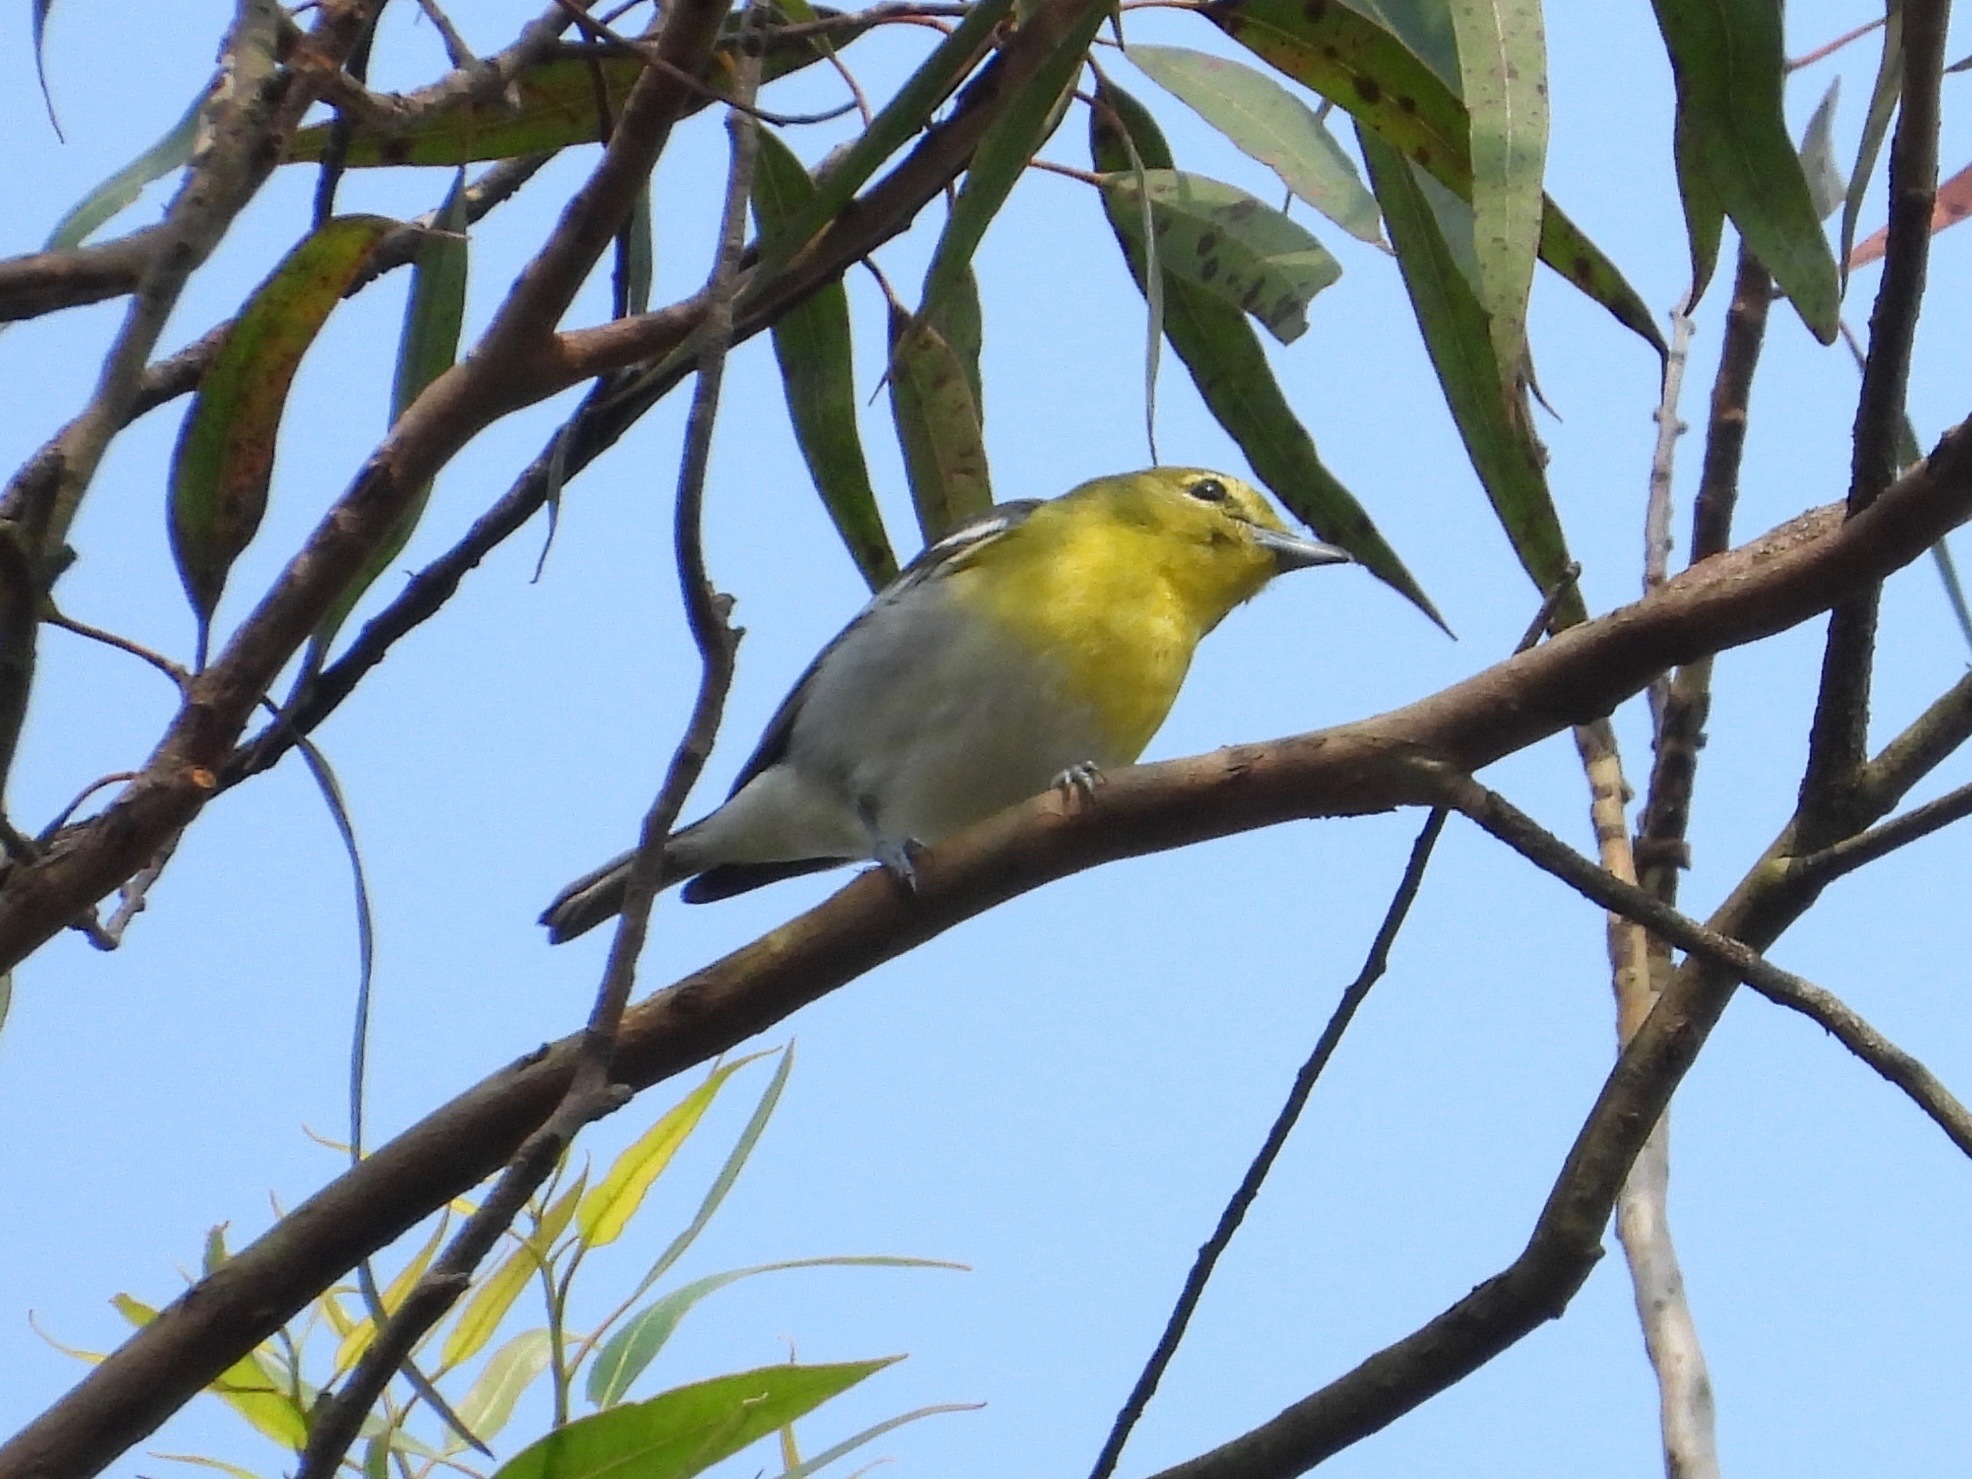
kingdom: Animalia
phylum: Chordata
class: Aves
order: Passeriformes
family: Vireonidae
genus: Vireo
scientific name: Vireo flavifrons
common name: Yellow-throated vireo
